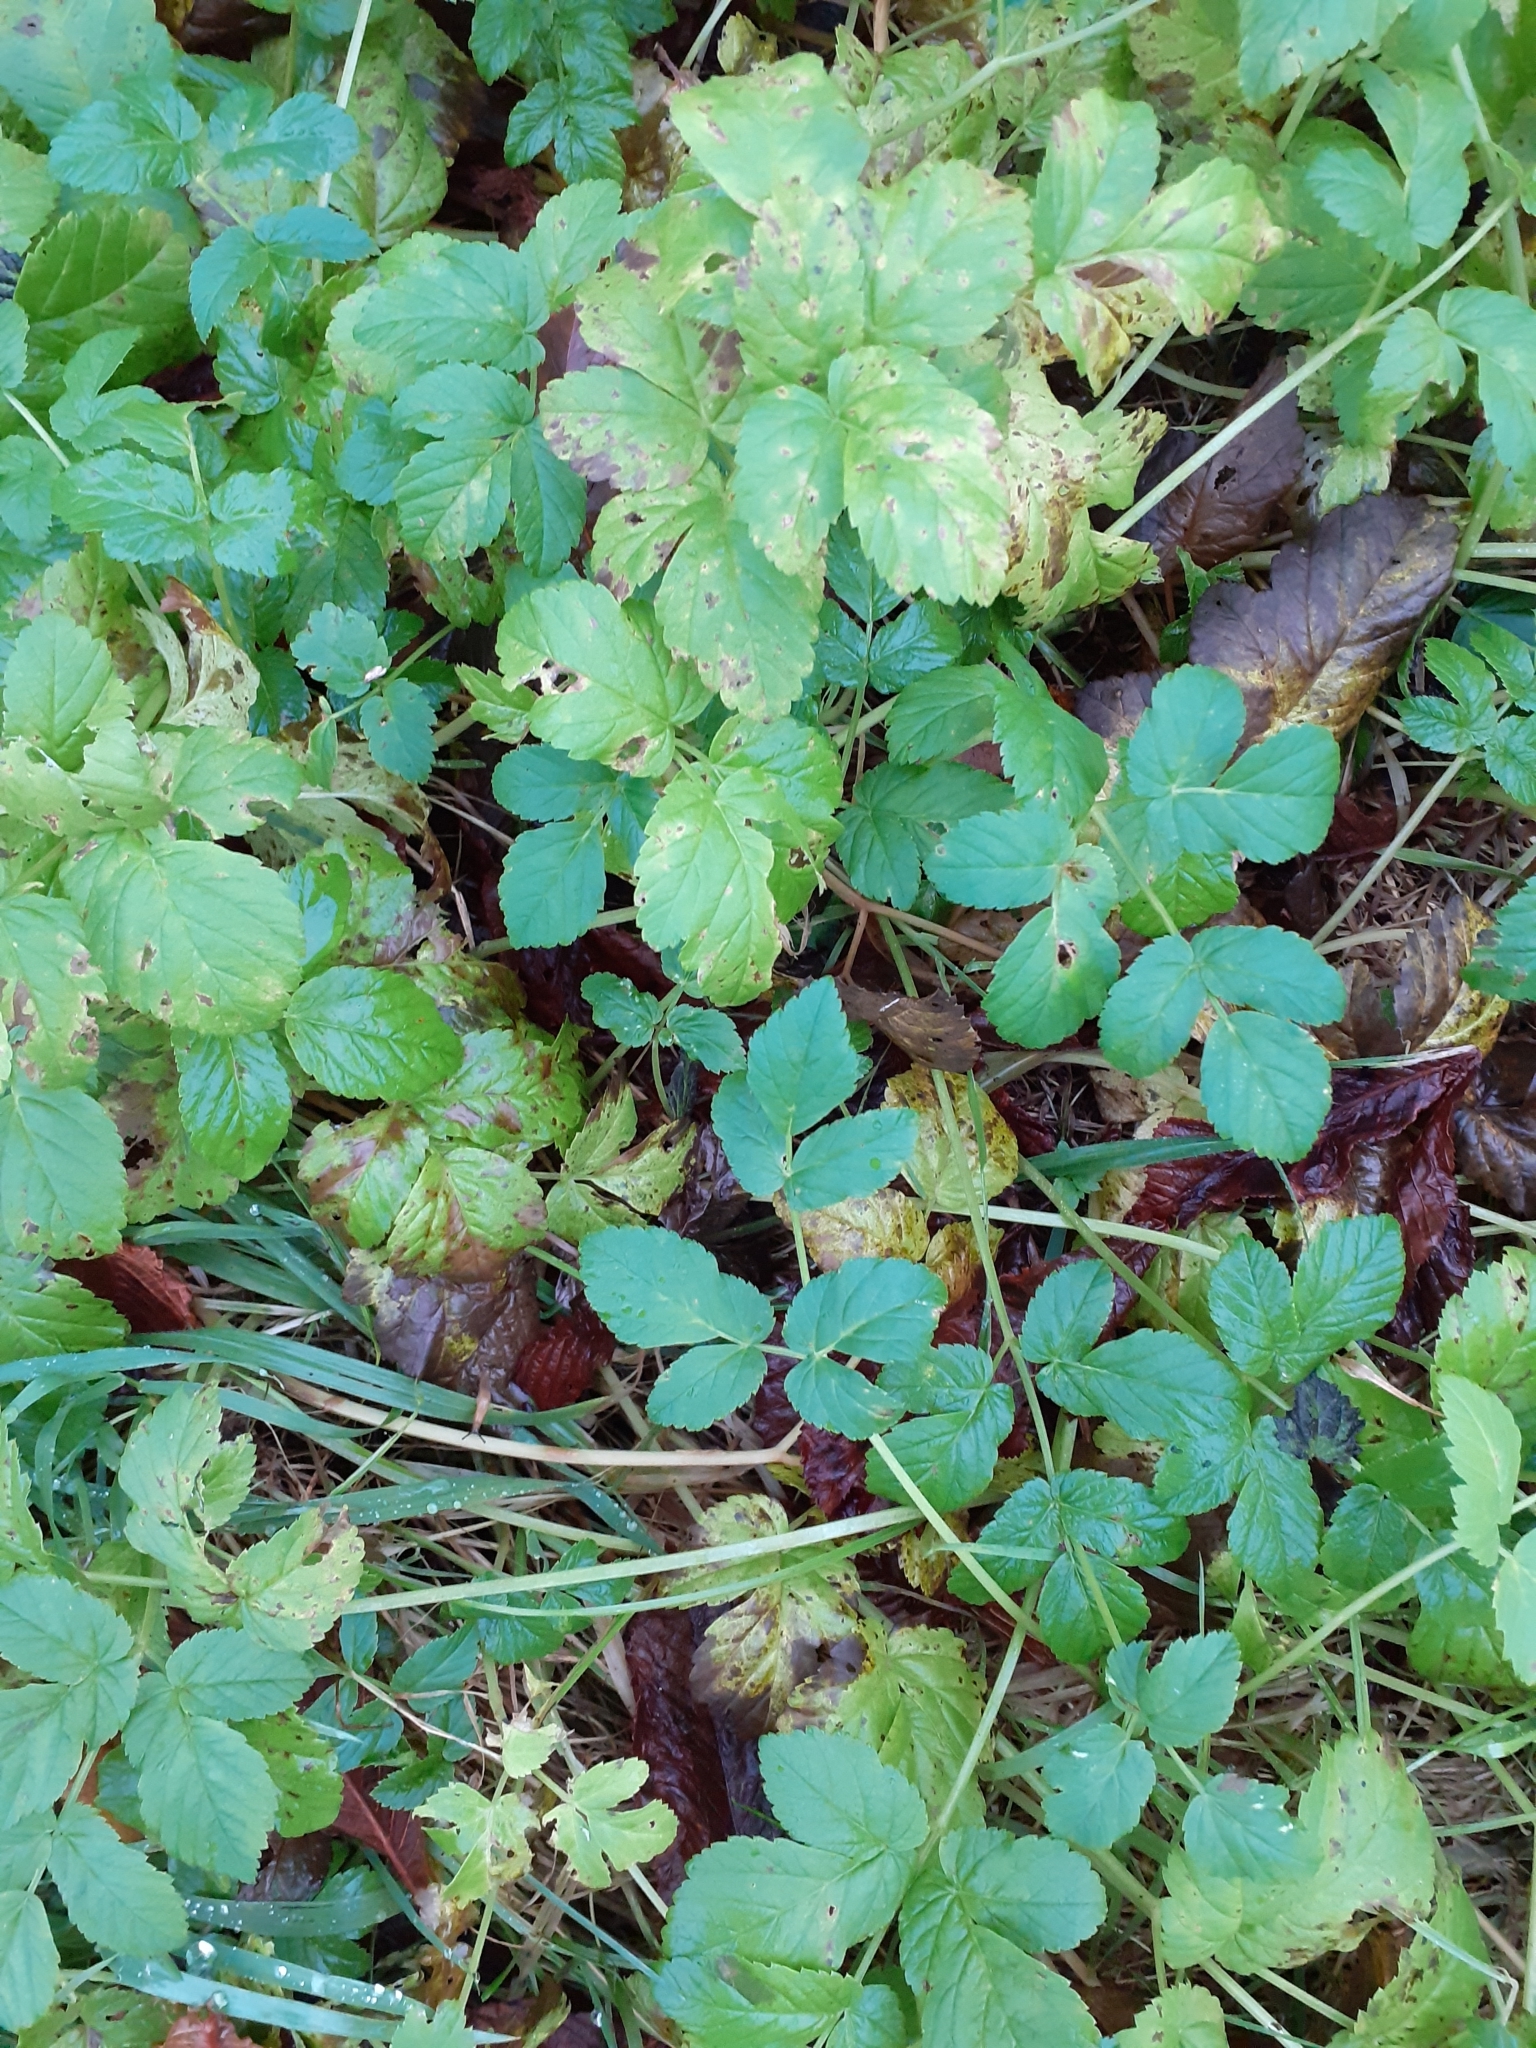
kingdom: Plantae
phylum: Tracheophyta
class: Magnoliopsida
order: Apiales
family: Apiaceae
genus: Aegopodium
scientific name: Aegopodium podagraria
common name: Ground-elder
